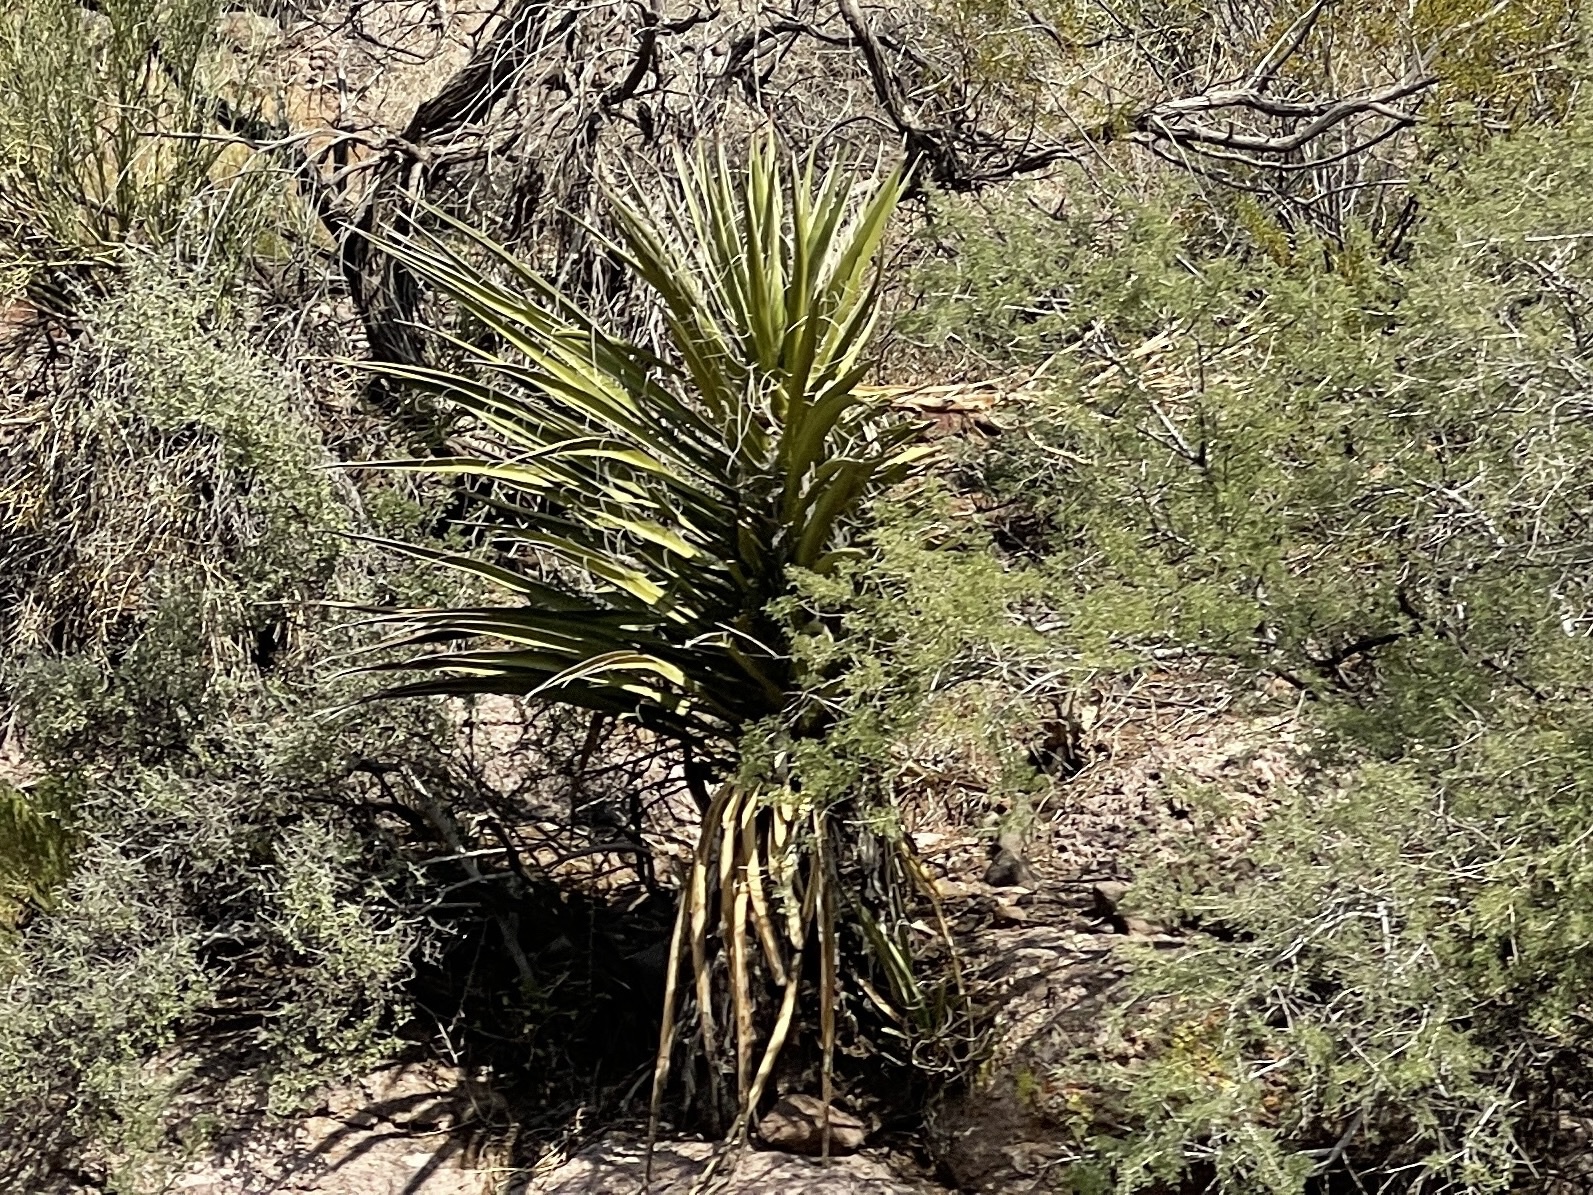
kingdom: Plantae
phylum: Tracheophyta
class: Liliopsida
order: Asparagales
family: Asparagaceae
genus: Yucca
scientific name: Yucca schidigera
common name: Mojave yucca
